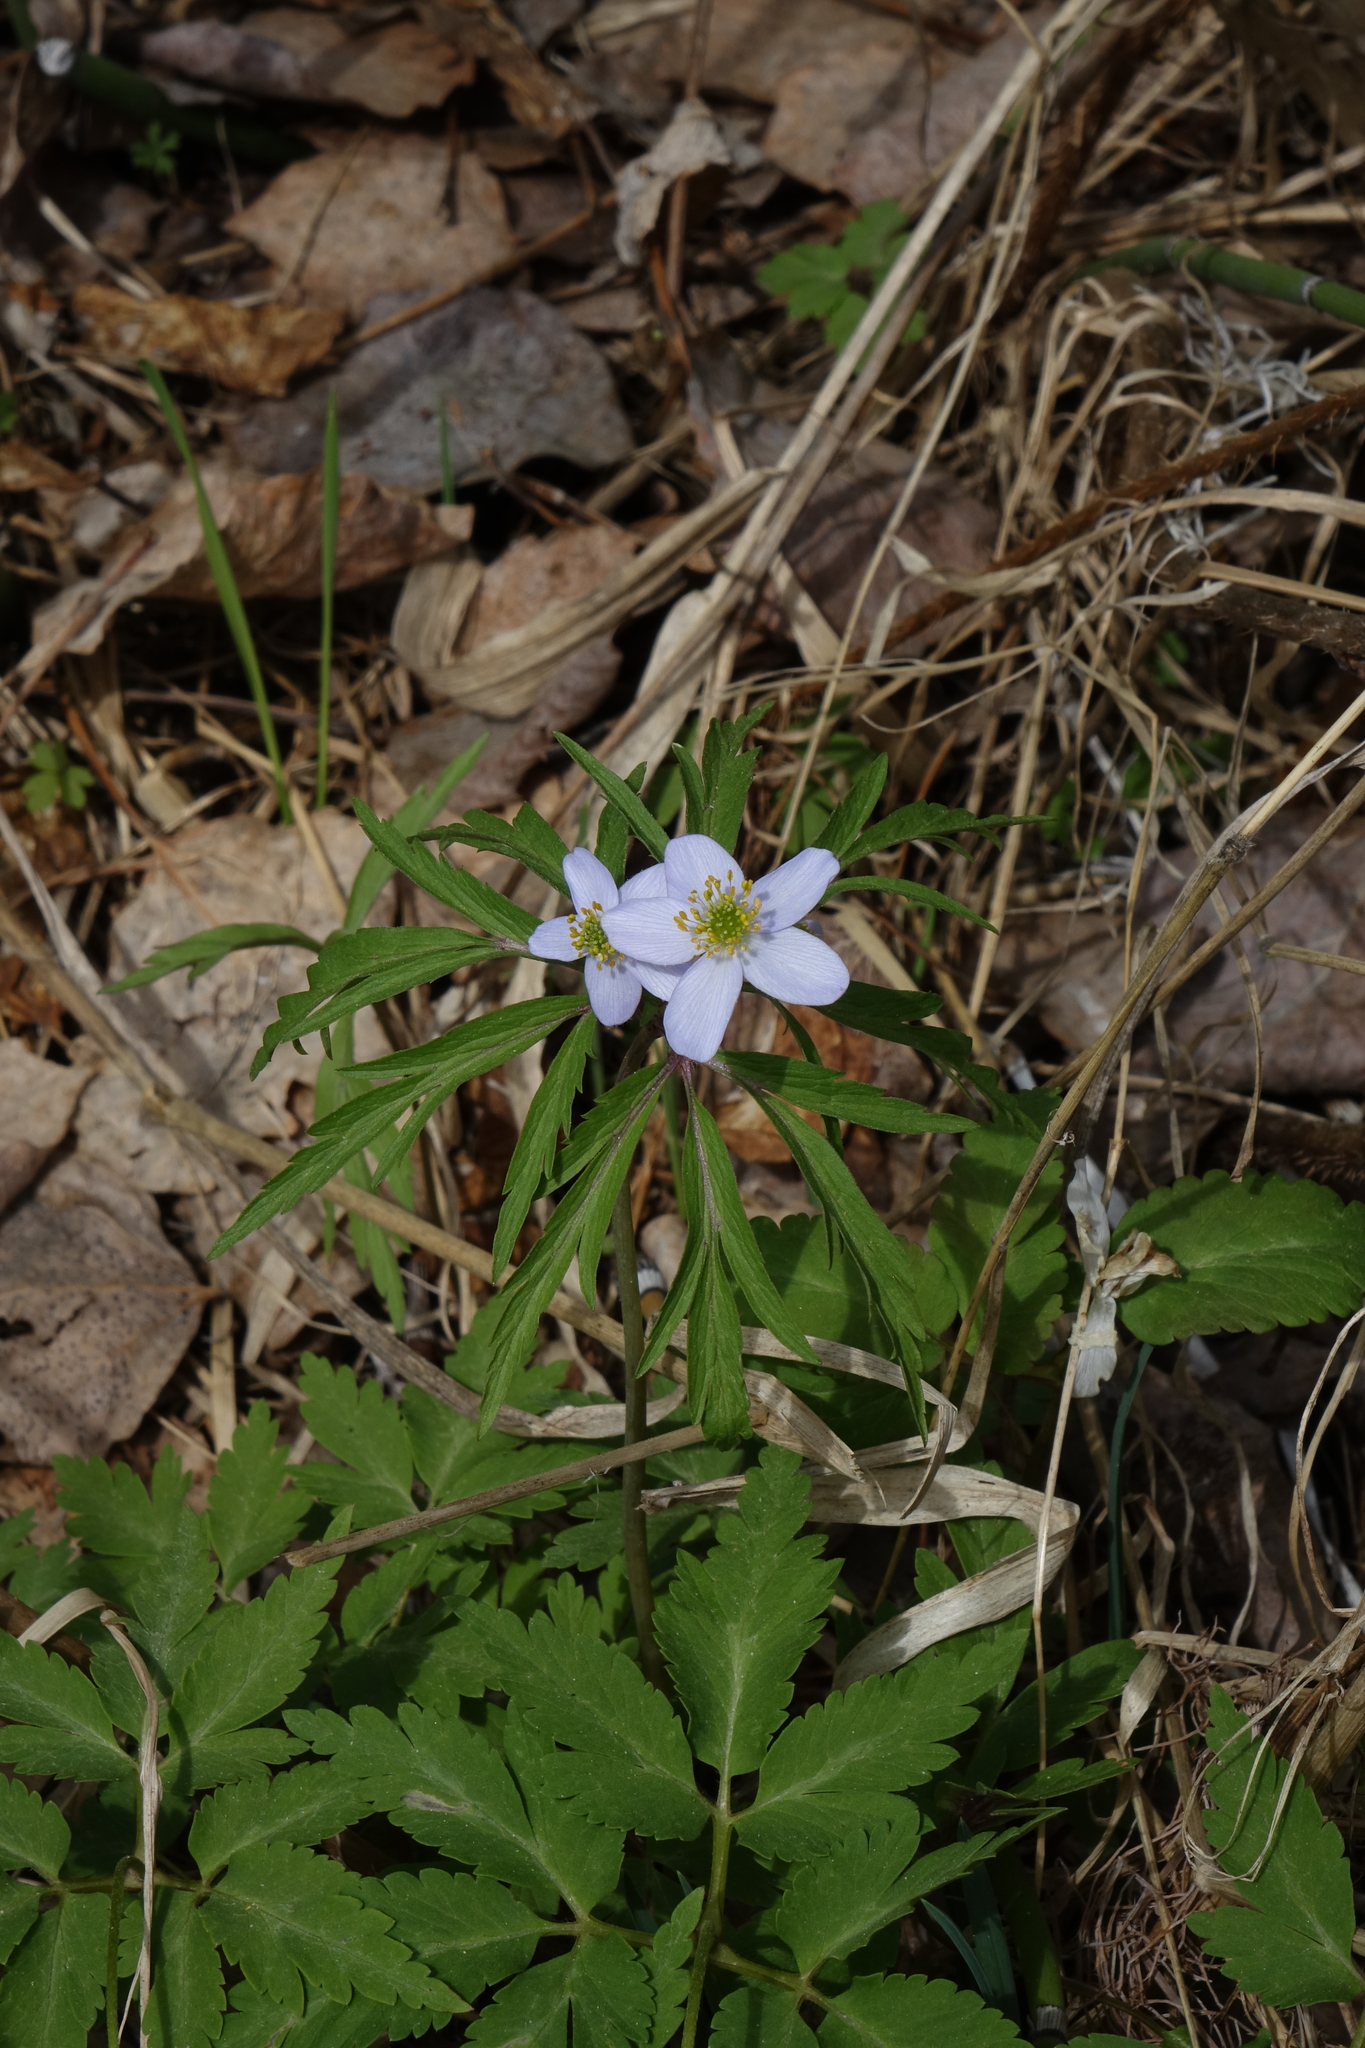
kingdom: Plantae
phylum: Tracheophyta
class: Magnoliopsida
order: Ranunculales
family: Ranunculaceae
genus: Anemone
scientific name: Anemone caerulea
